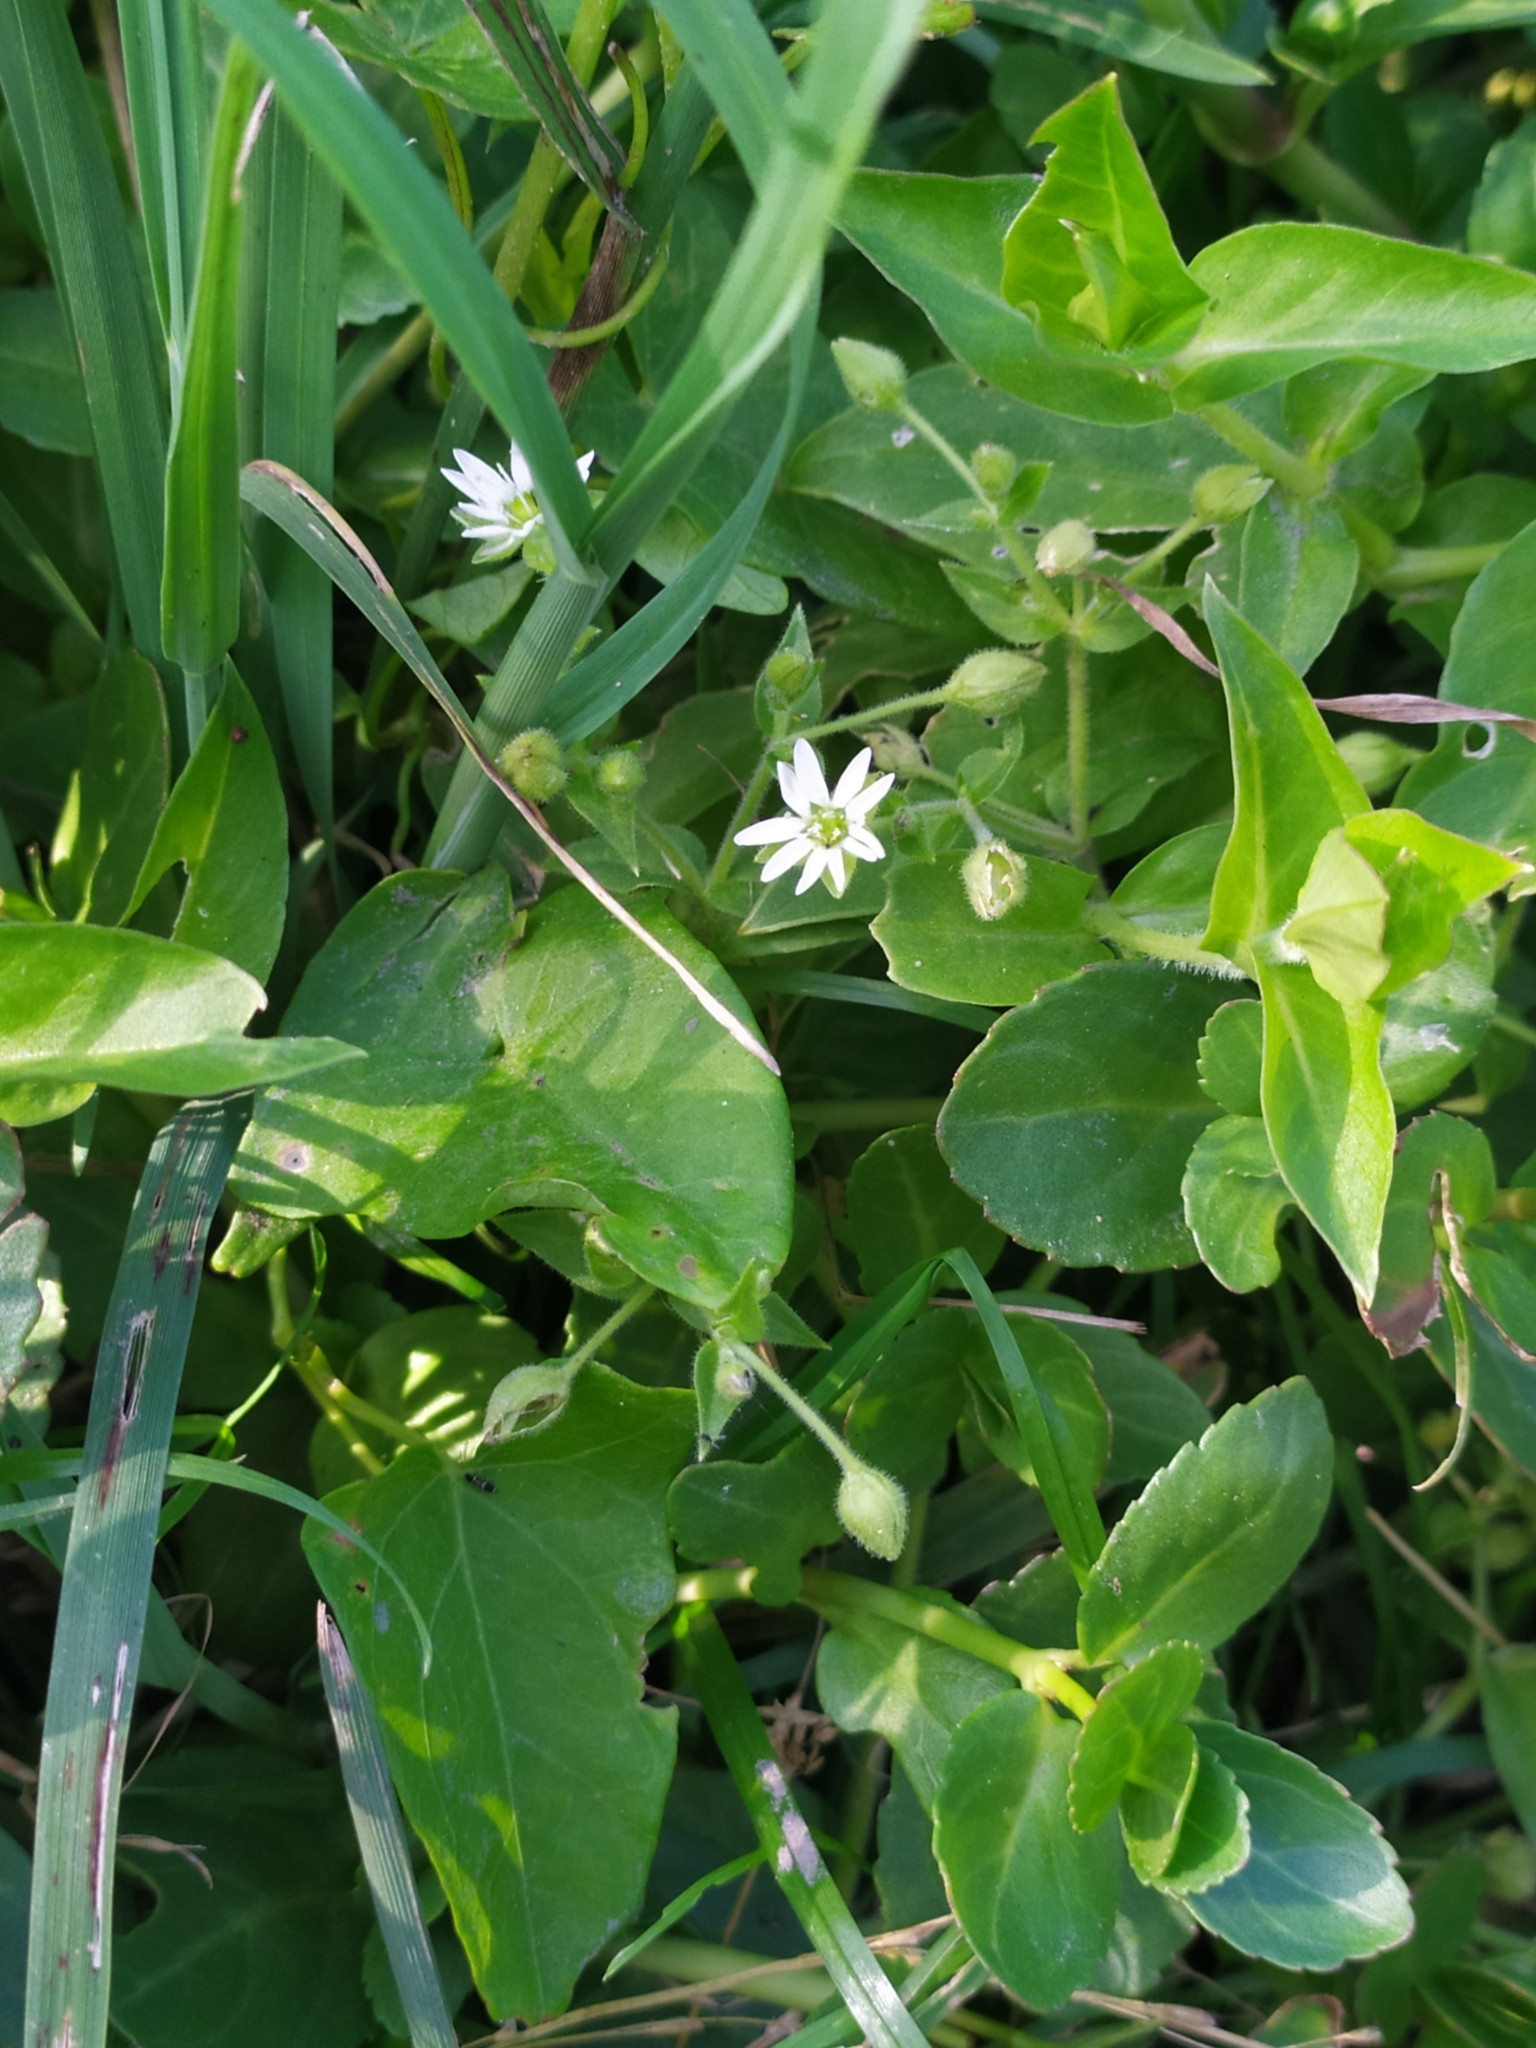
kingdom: Plantae
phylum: Tracheophyta
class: Magnoliopsida
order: Caryophyllales
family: Caryophyllaceae
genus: Stellaria
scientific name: Stellaria aquatica
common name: Water chickweed
